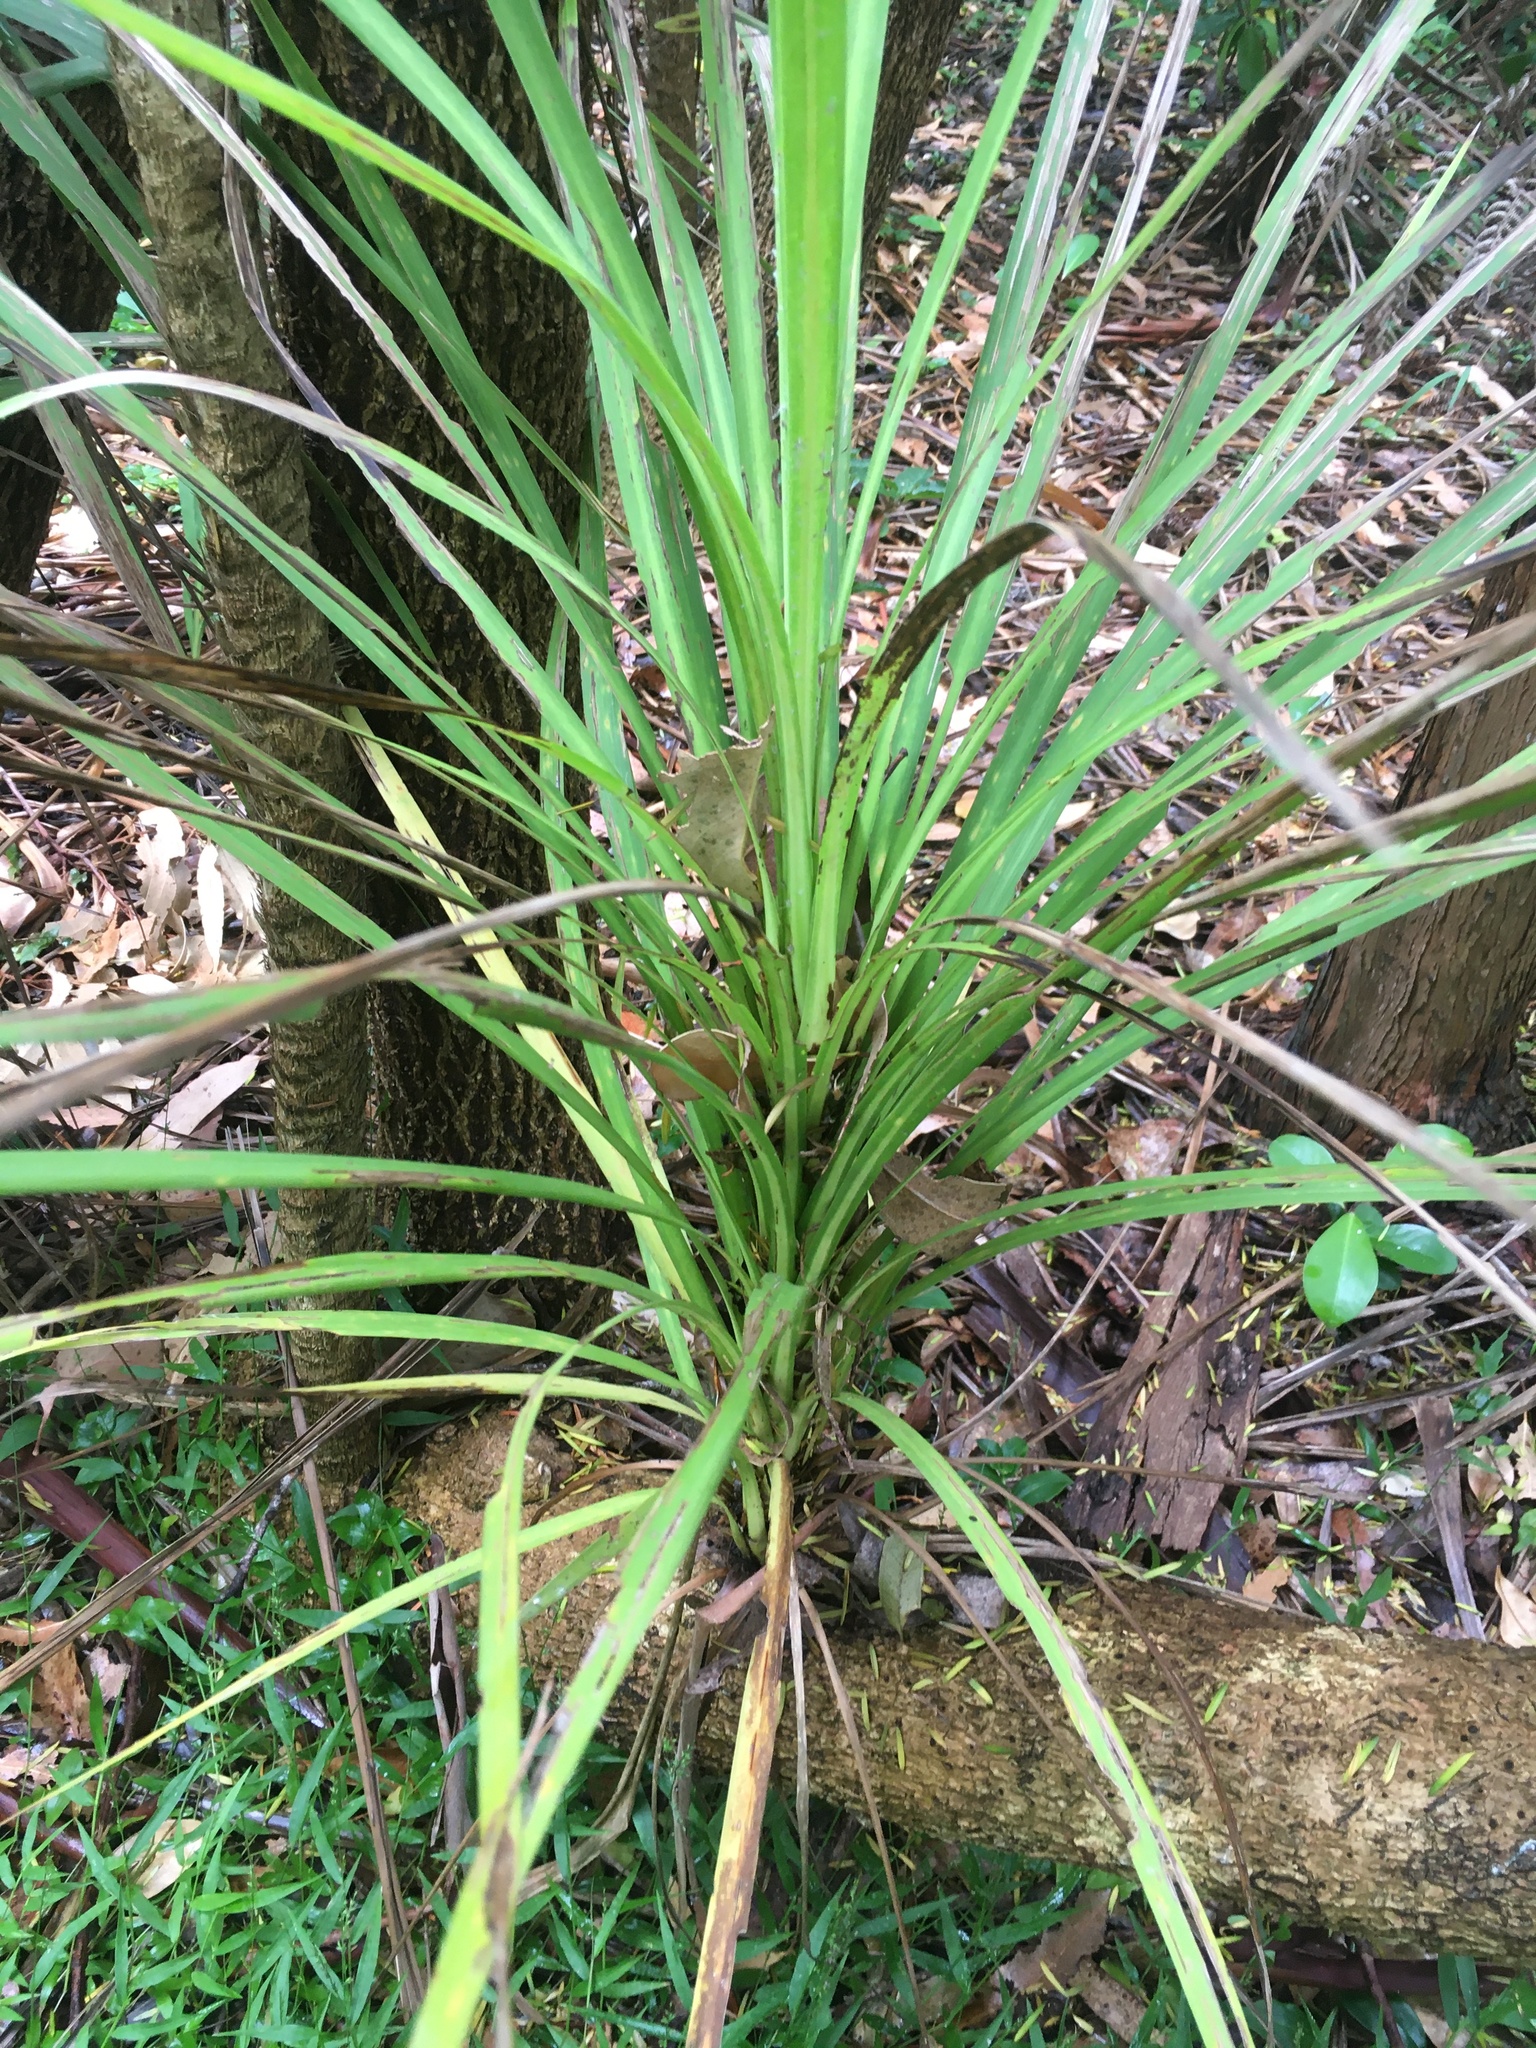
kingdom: Plantae
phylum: Tracheophyta
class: Liliopsida
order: Asparagales
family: Asparagaceae
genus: Cordyline
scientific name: Cordyline australis
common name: Cabbage-palm
